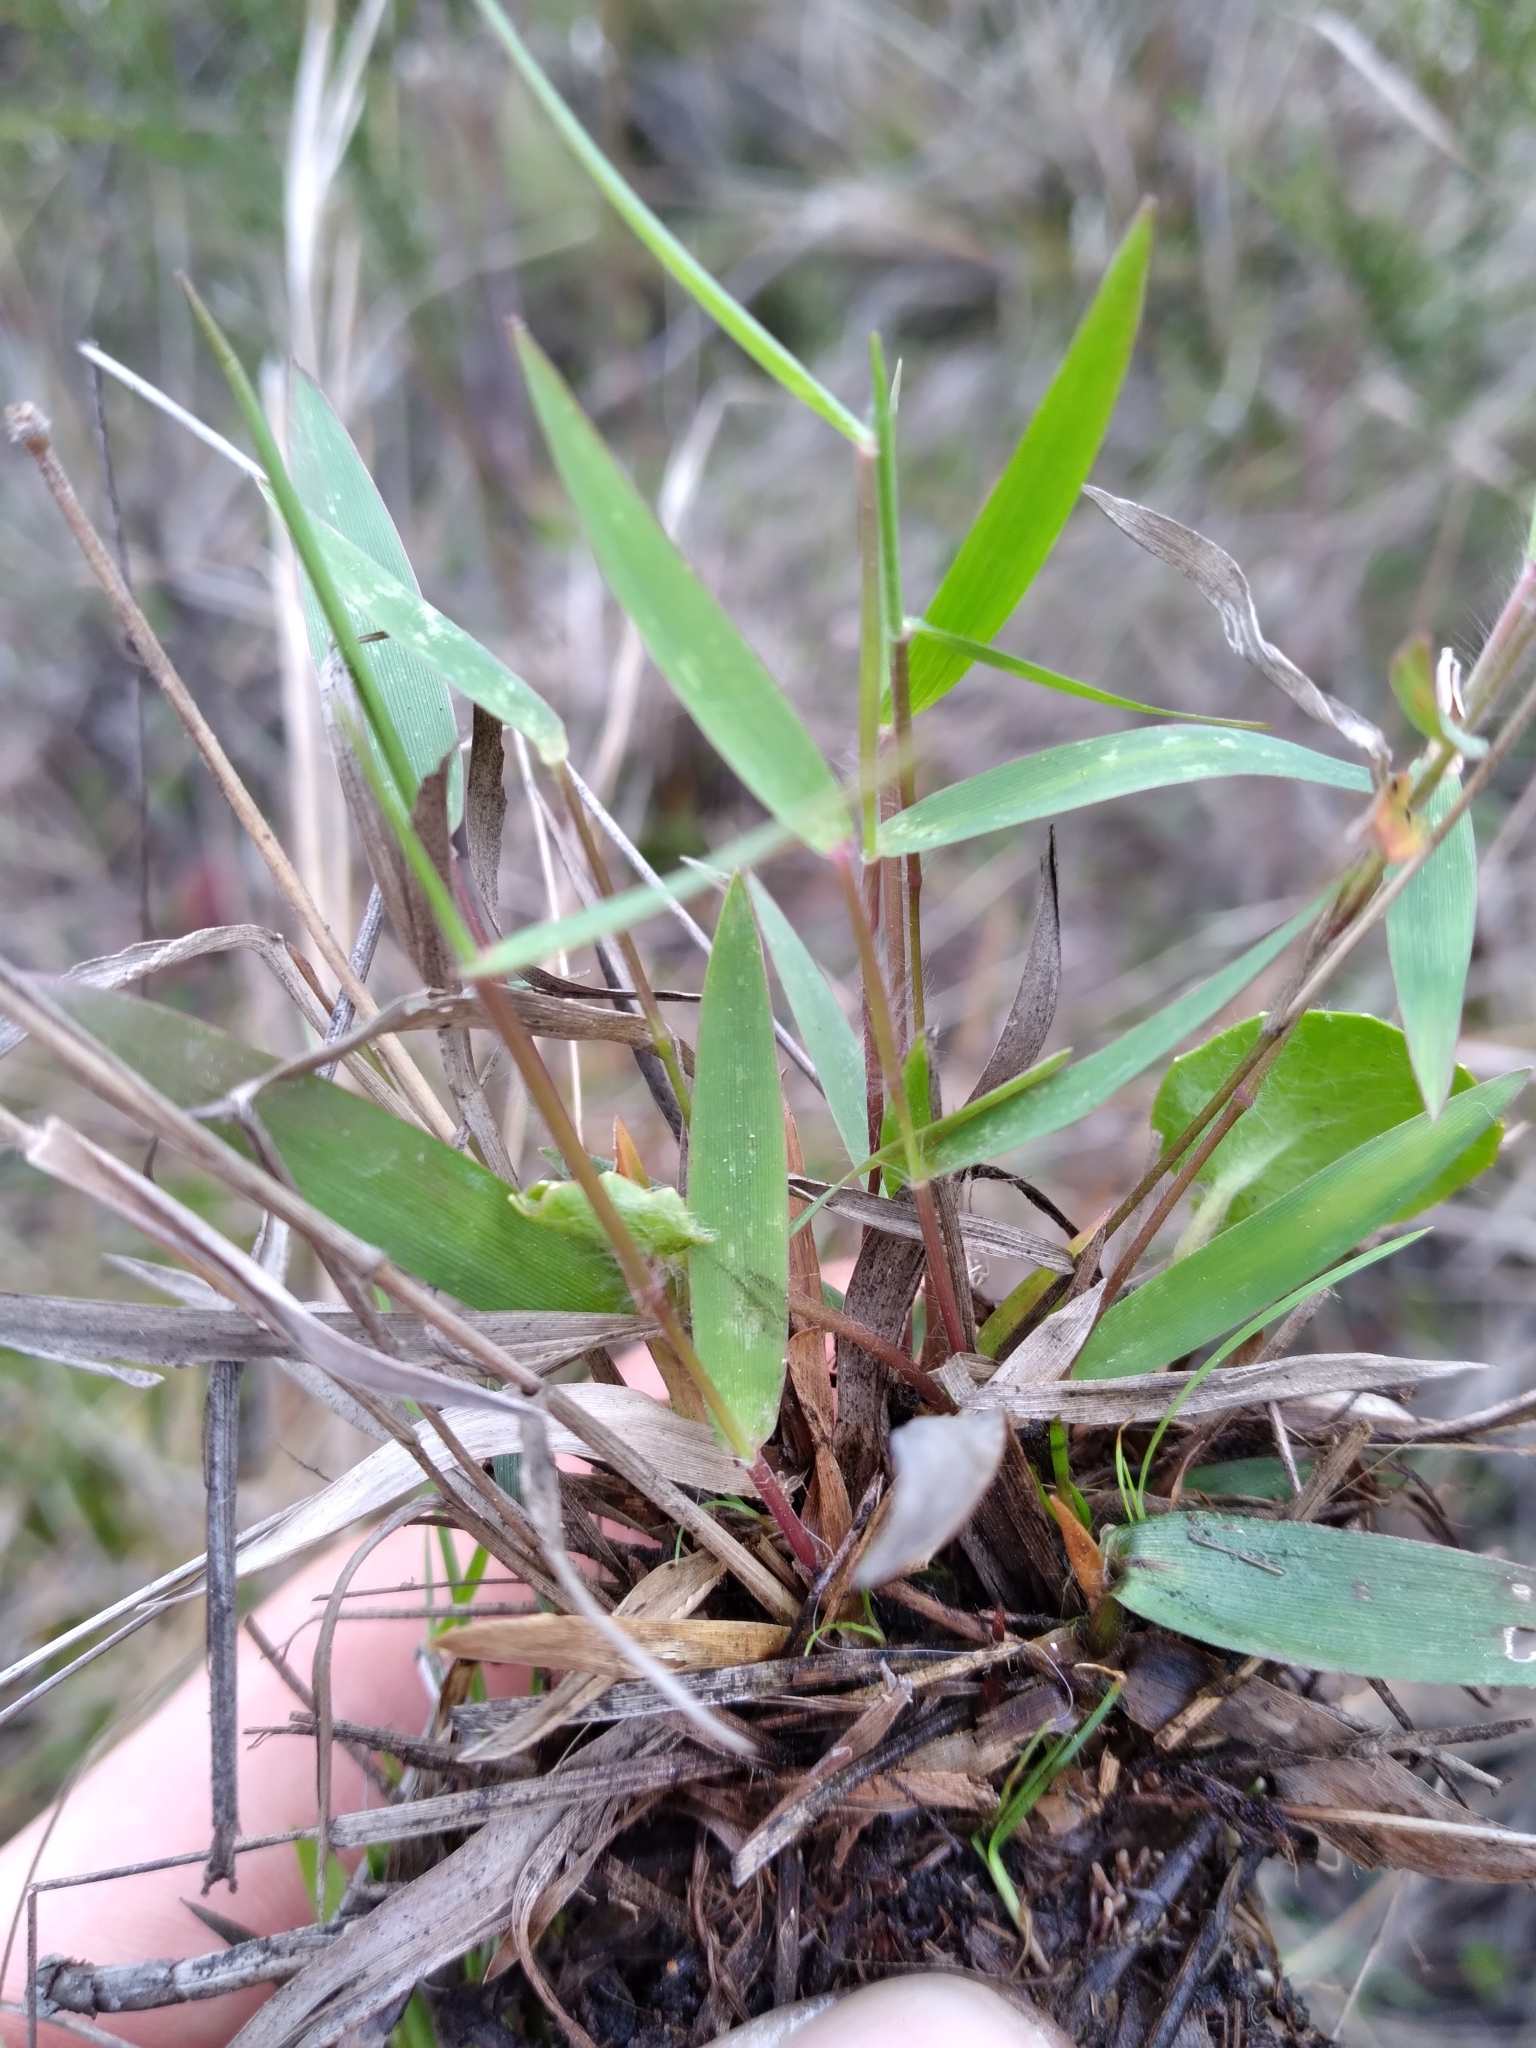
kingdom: Plantae
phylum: Tracheophyta
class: Liliopsida
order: Poales
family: Poaceae
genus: Dichanthelium
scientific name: Dichanthelium leucothrix
